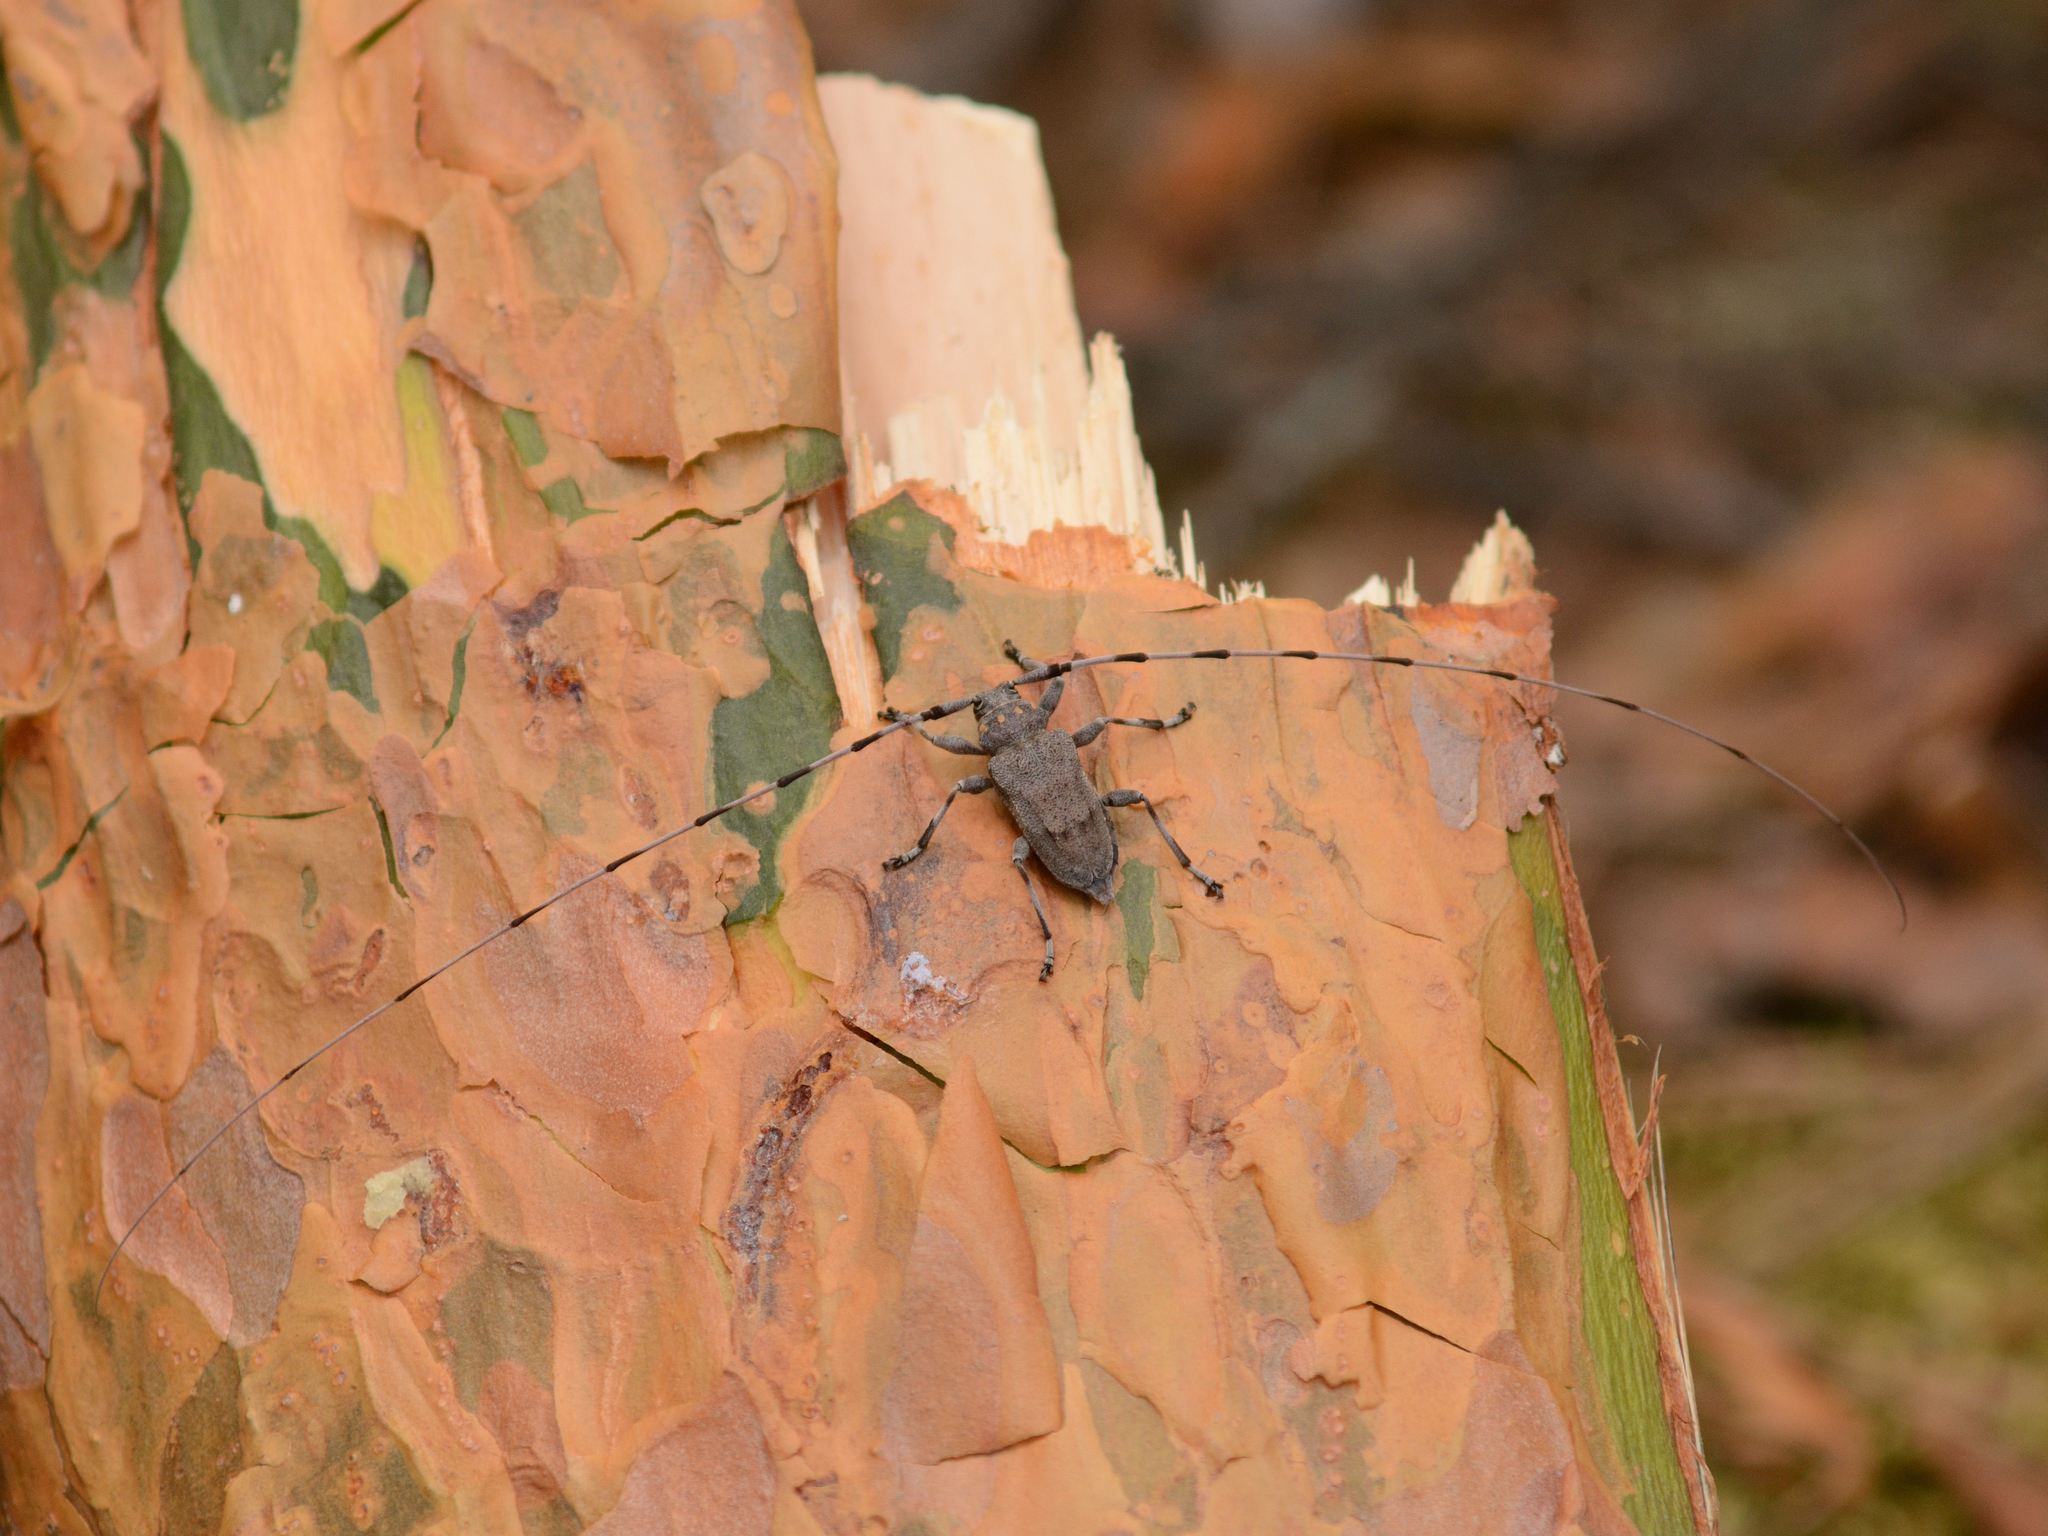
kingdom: Animalia
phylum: Arthropoda
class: Insecta
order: Coleoptera
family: Cerambycidae
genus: Acanthocinus
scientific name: Acanthocinus aedilis
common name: Timberman beetle
